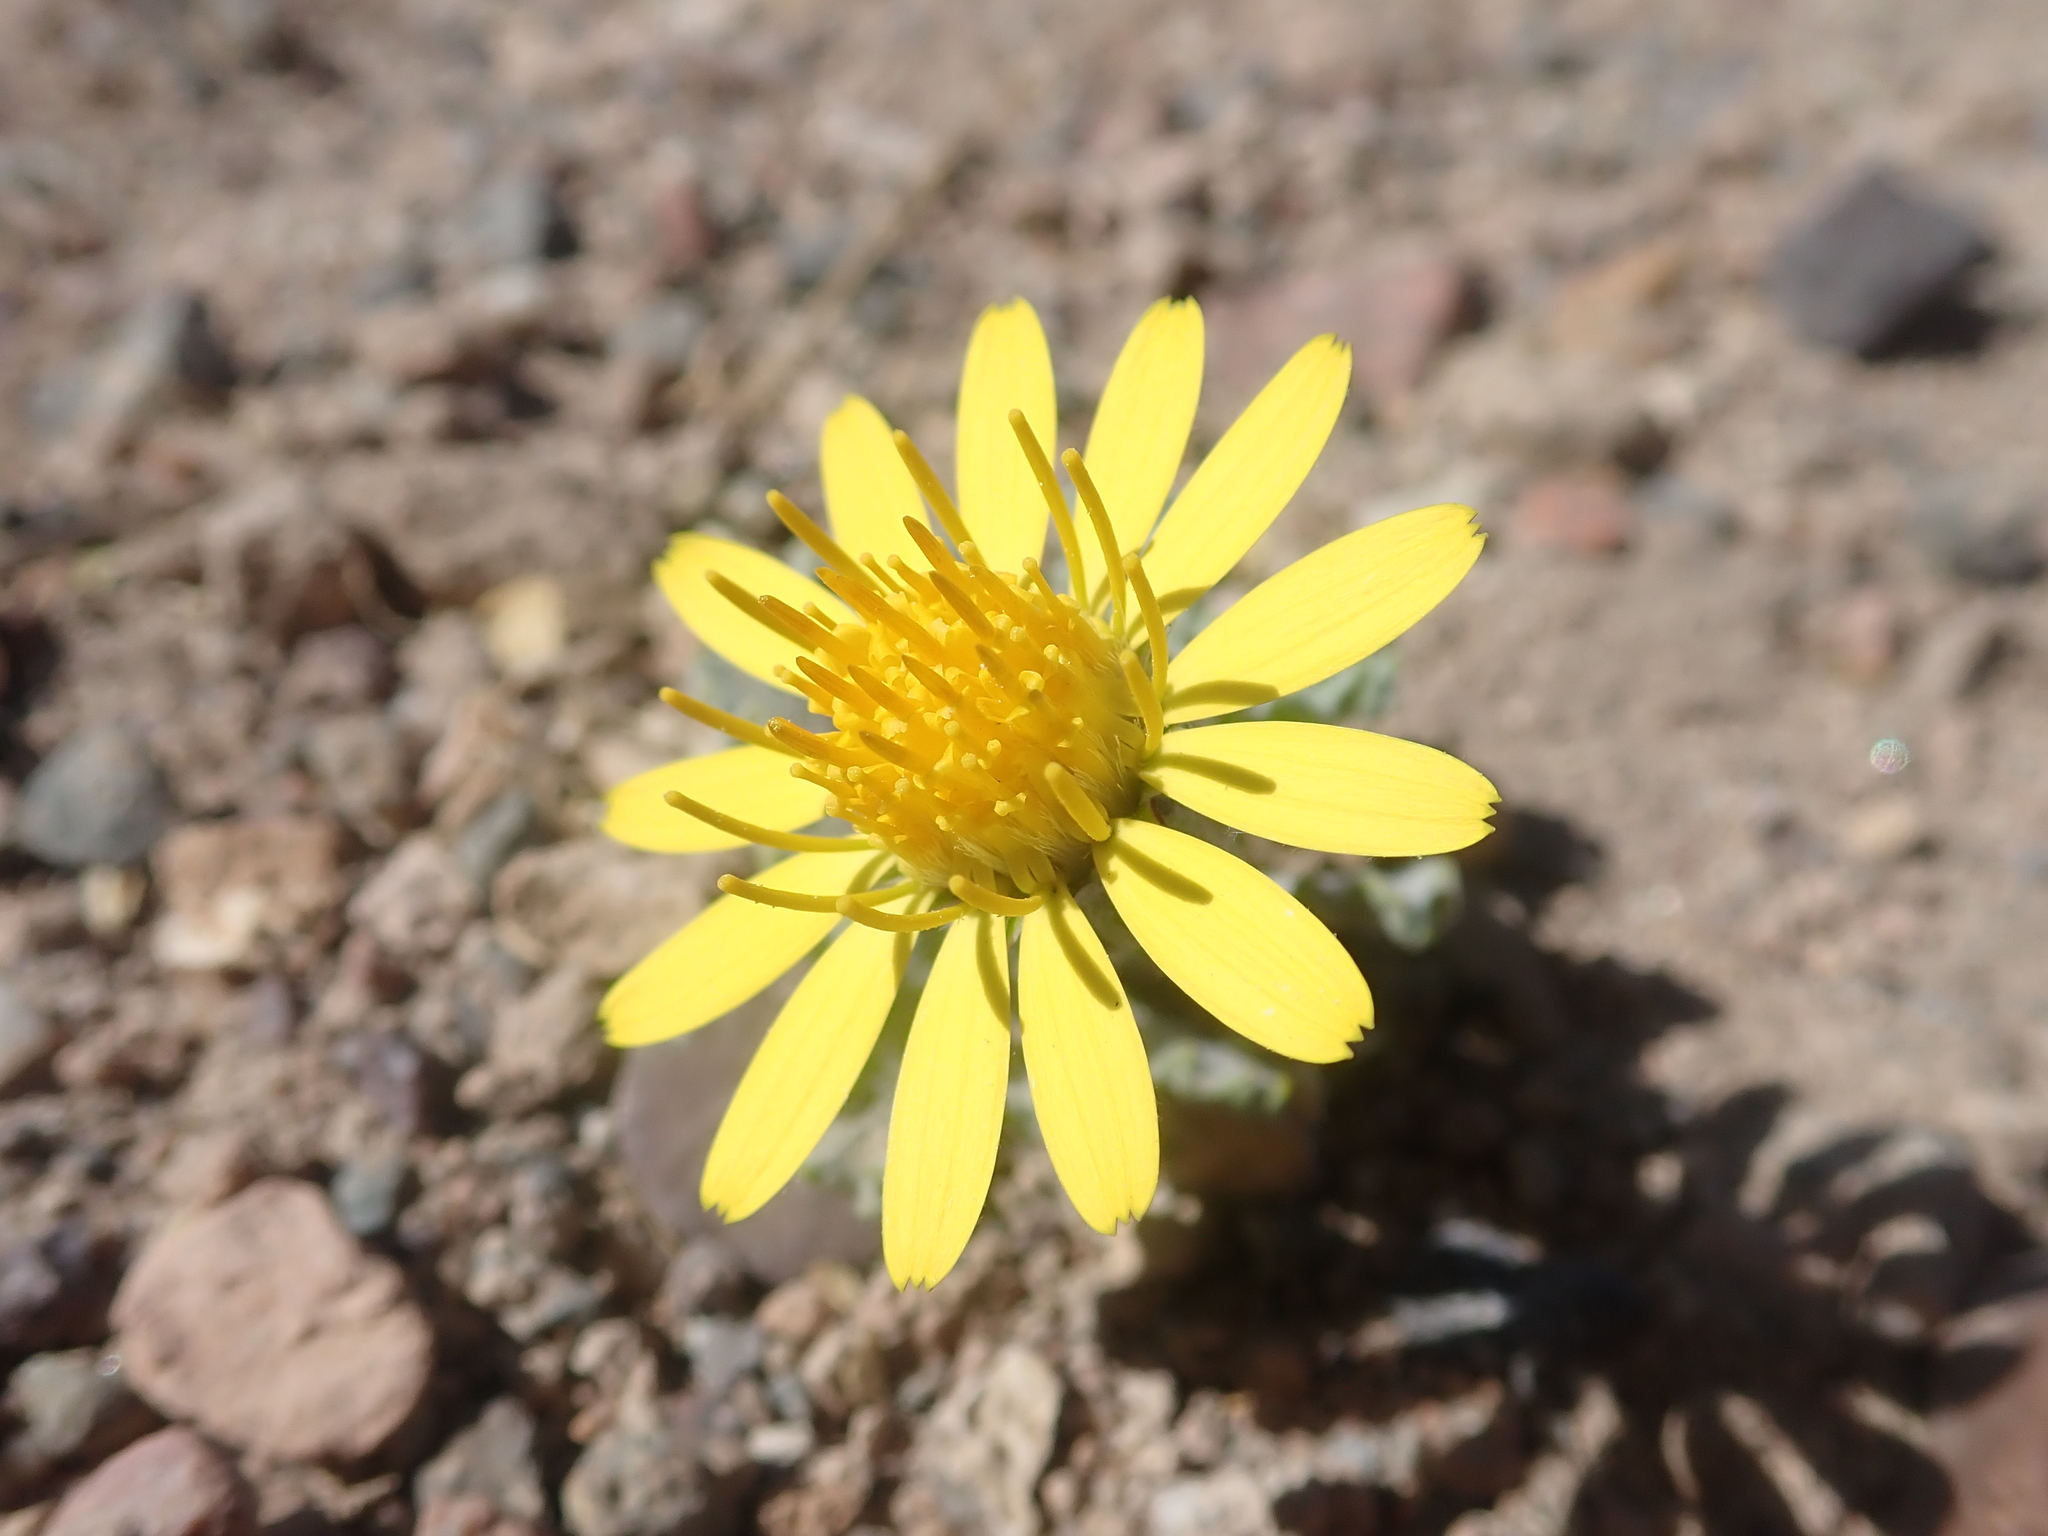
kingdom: Plantae
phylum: Tracheophyta
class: Magnoliopsida
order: Asterales
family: Asteraceae
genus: Trichocline
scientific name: Trichocline caulescens
